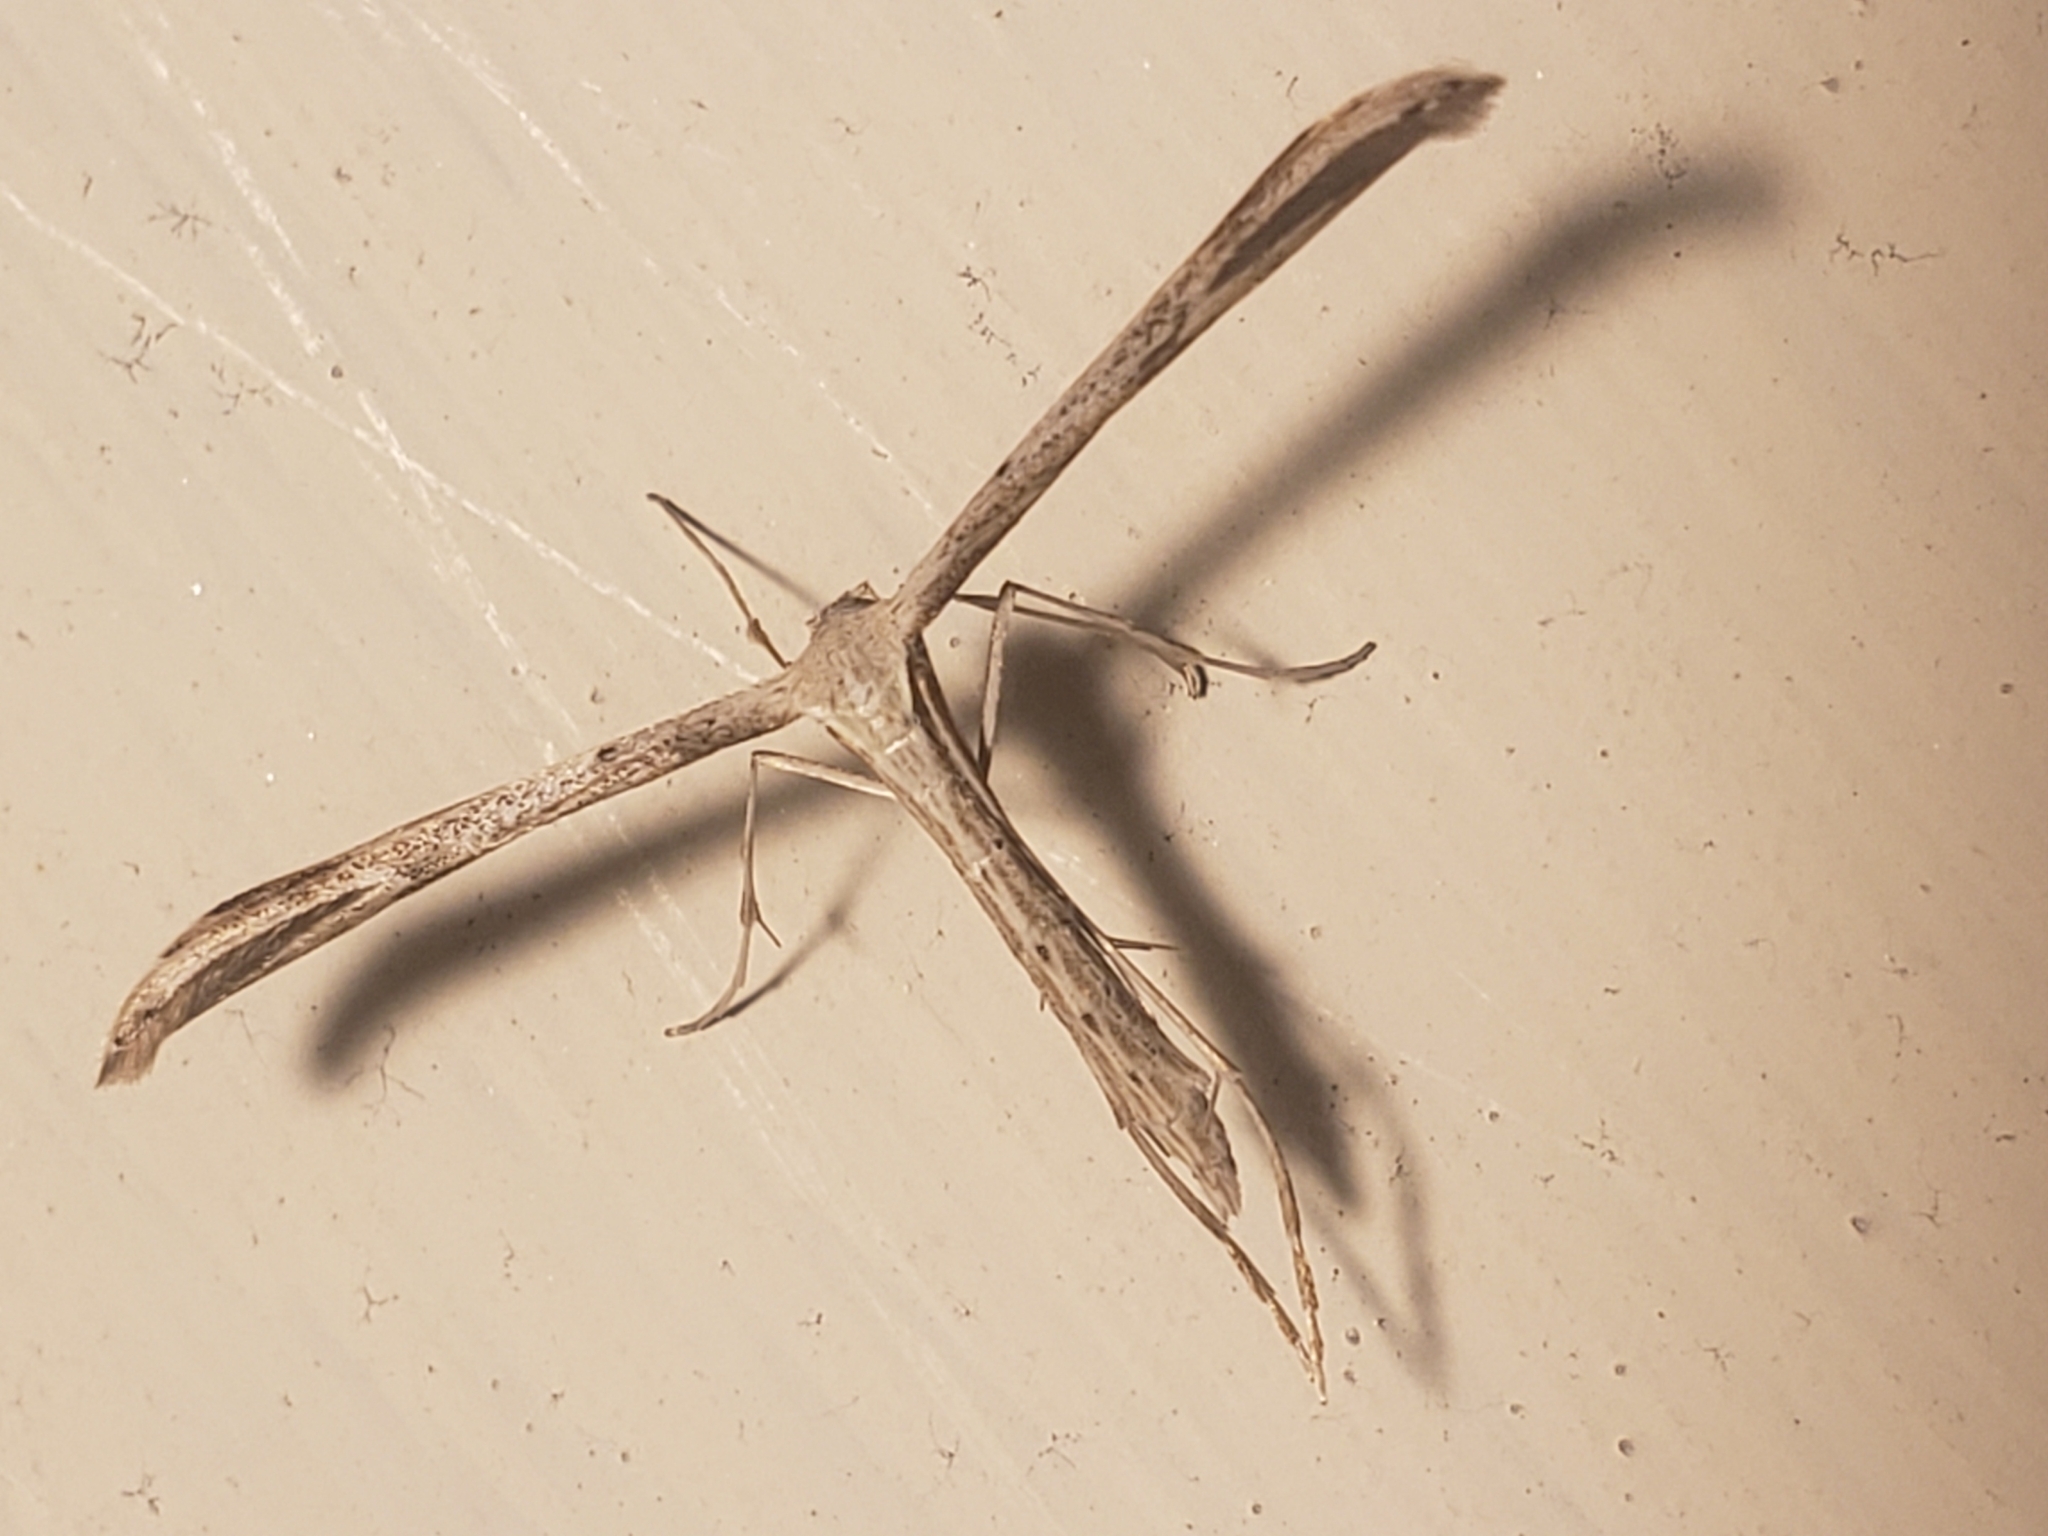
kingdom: Animalia
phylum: Arthropoda
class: Insecta
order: Lepidoptera
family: Pterophoridae
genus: Emmelina
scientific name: Emmelina monodactyla
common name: Common plume
